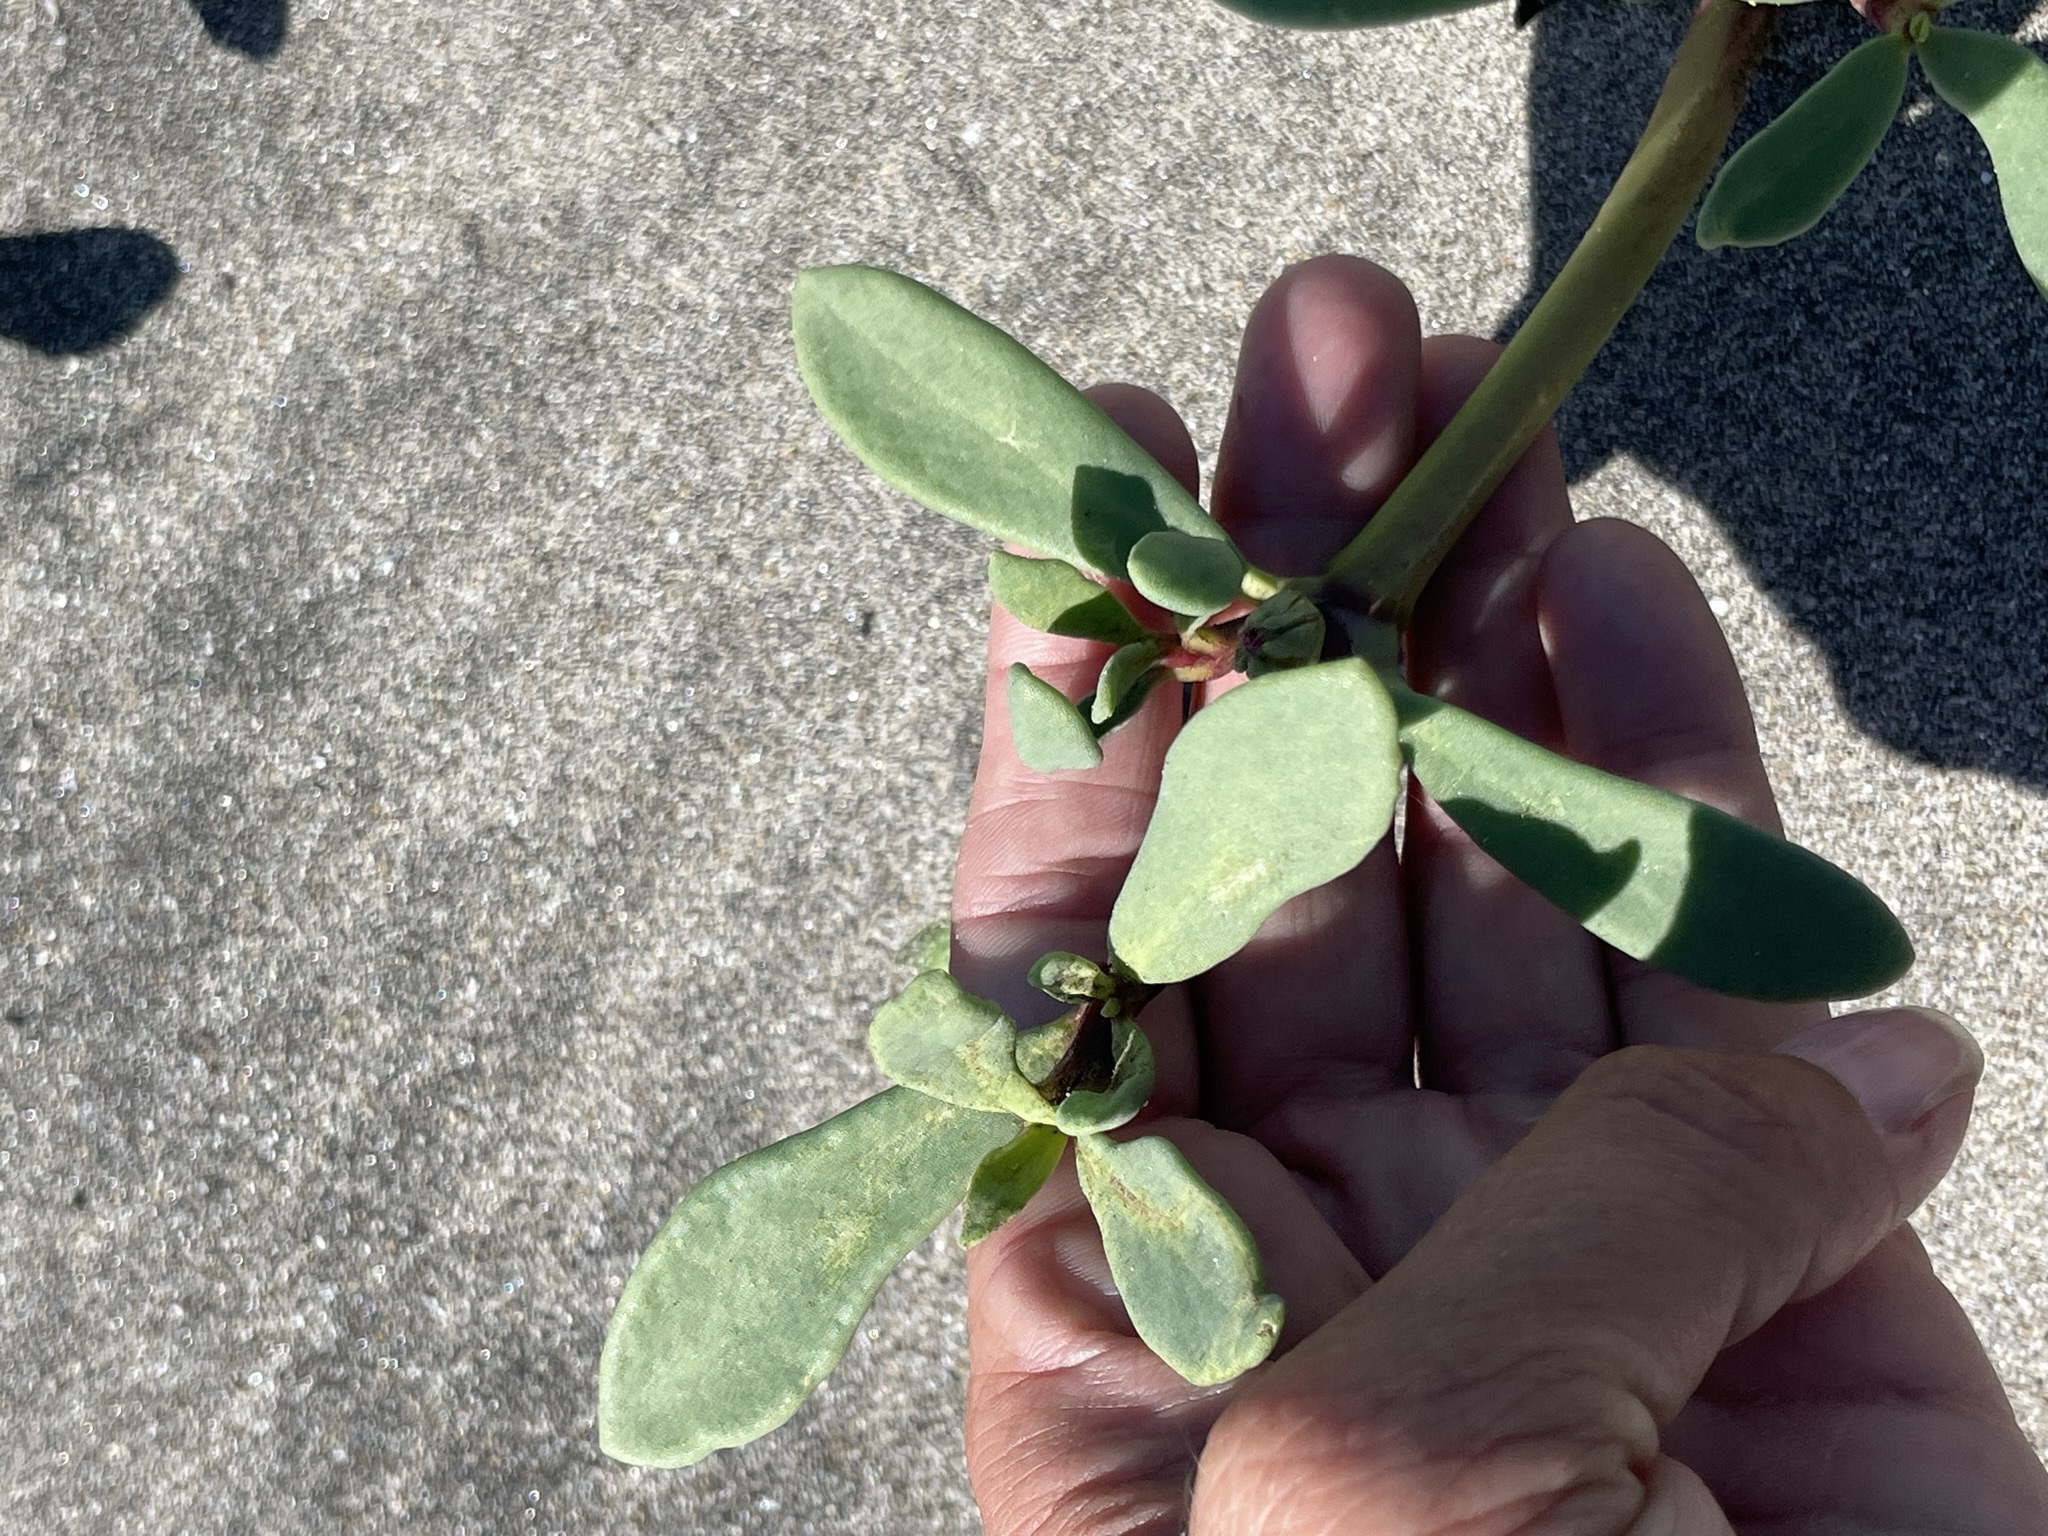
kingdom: Plantae
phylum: Tracheophyta
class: Magnoliopsida
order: Caryophyllales
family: Aizoaceae
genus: Sesuvium
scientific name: Sesuvium portulacastrum
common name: Sea-purslane
